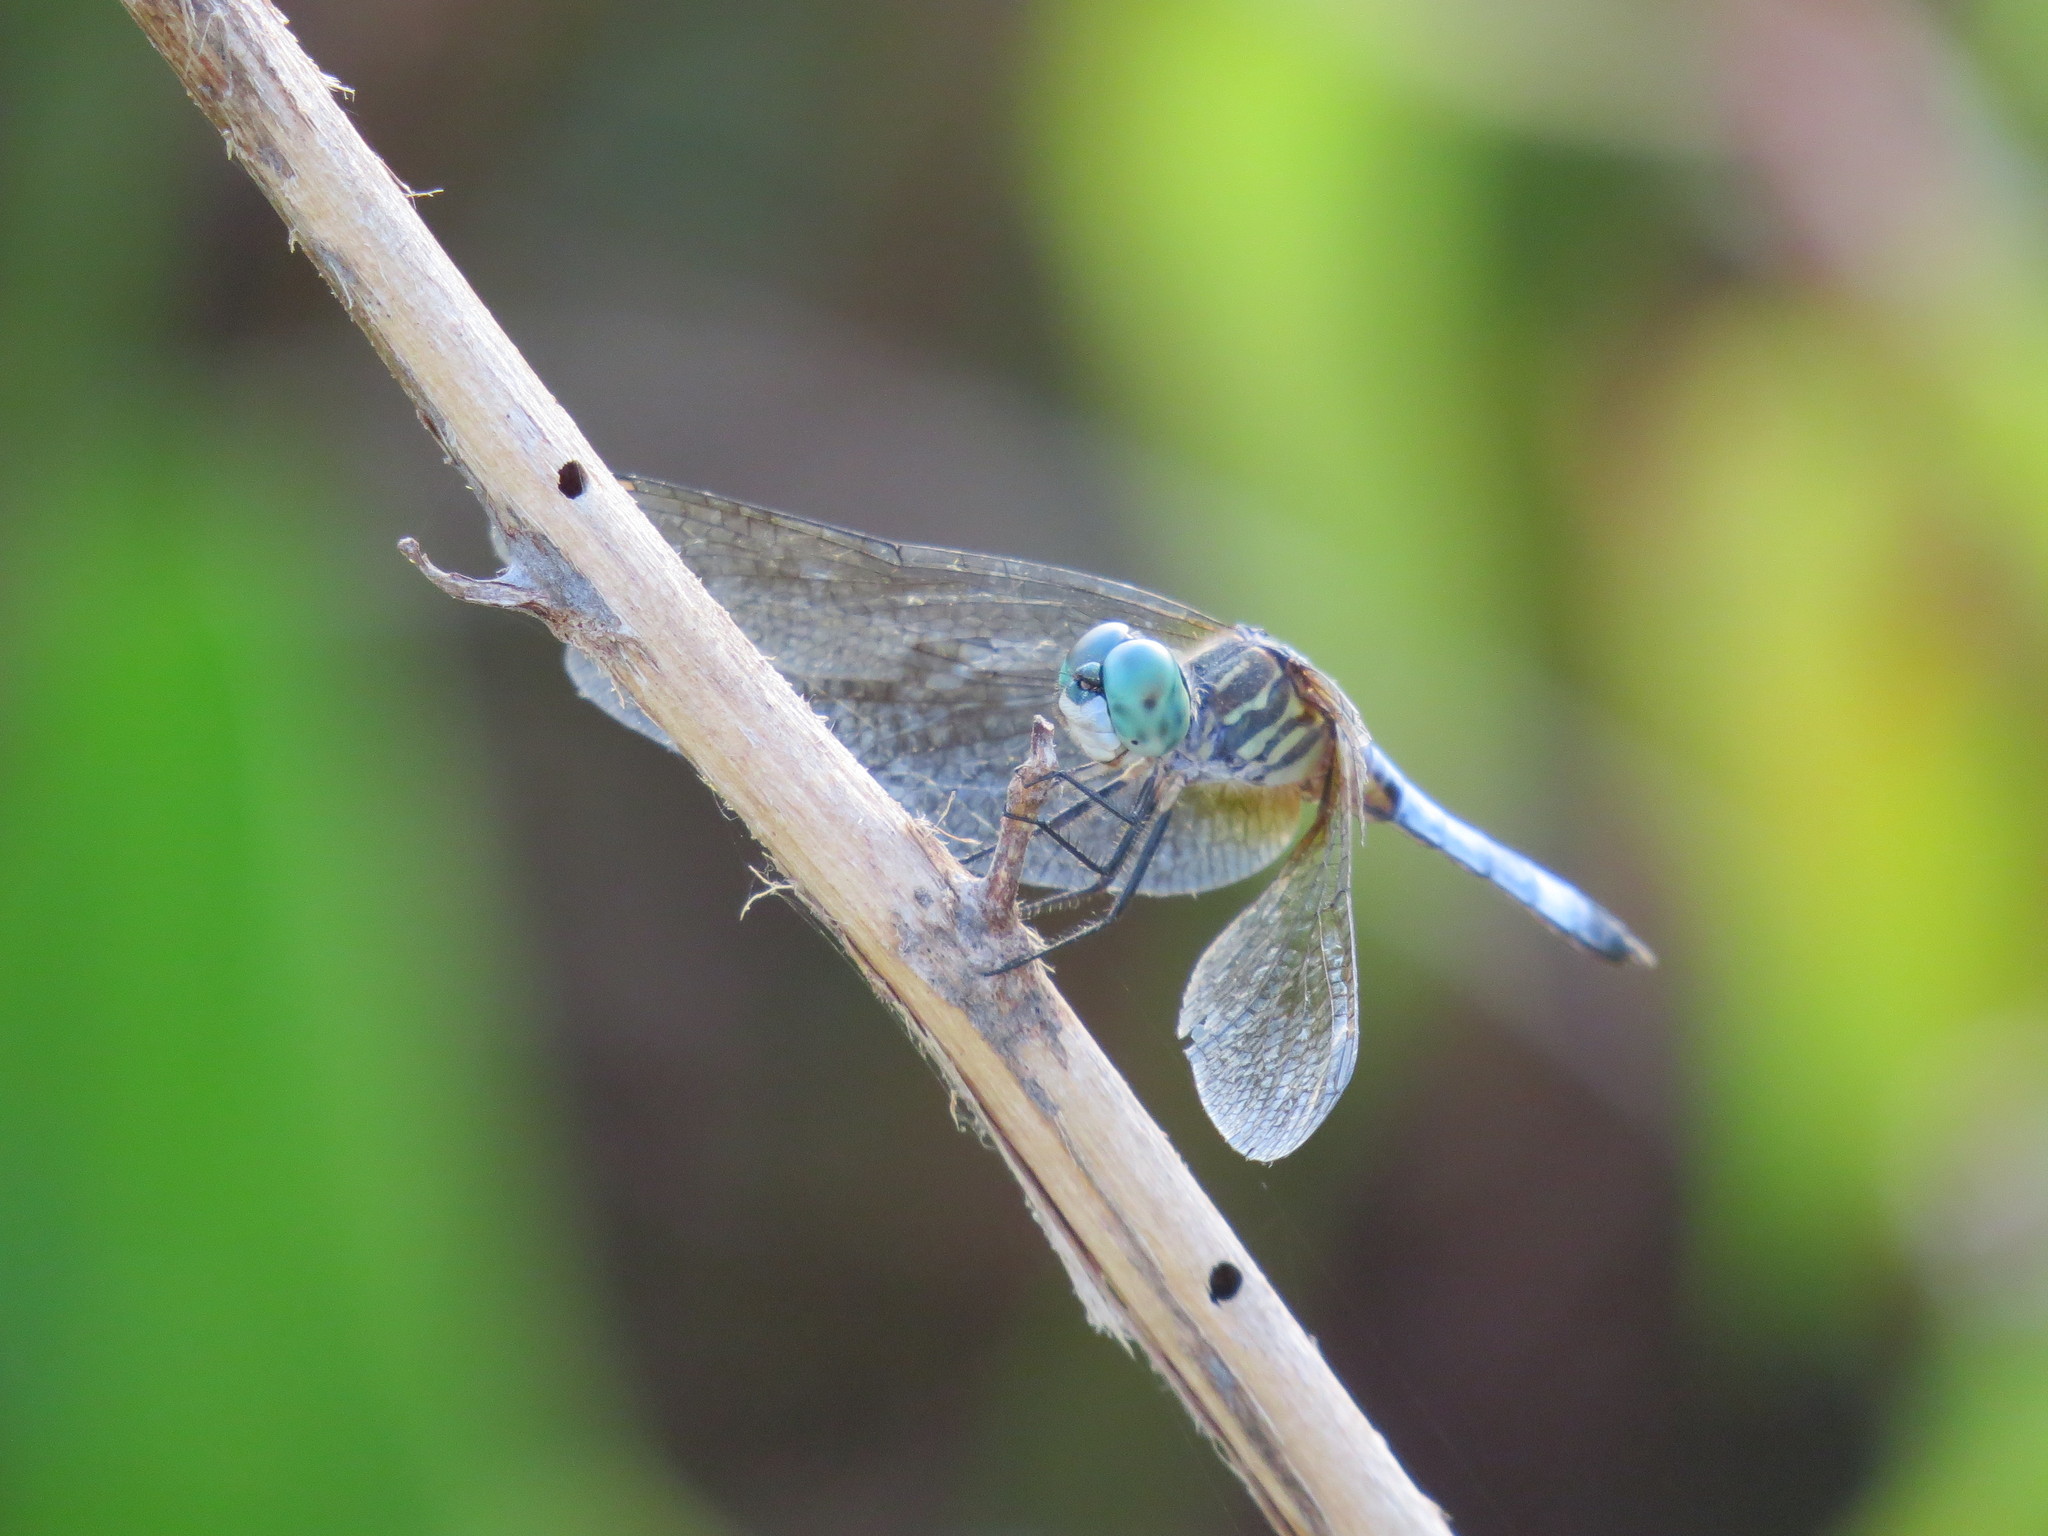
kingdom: Animalia
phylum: Arthropoda
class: Insecta
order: Odonata
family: Libellulidae
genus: Pachydiplax
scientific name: Pachydiplax longipennis
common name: Blue dasher
